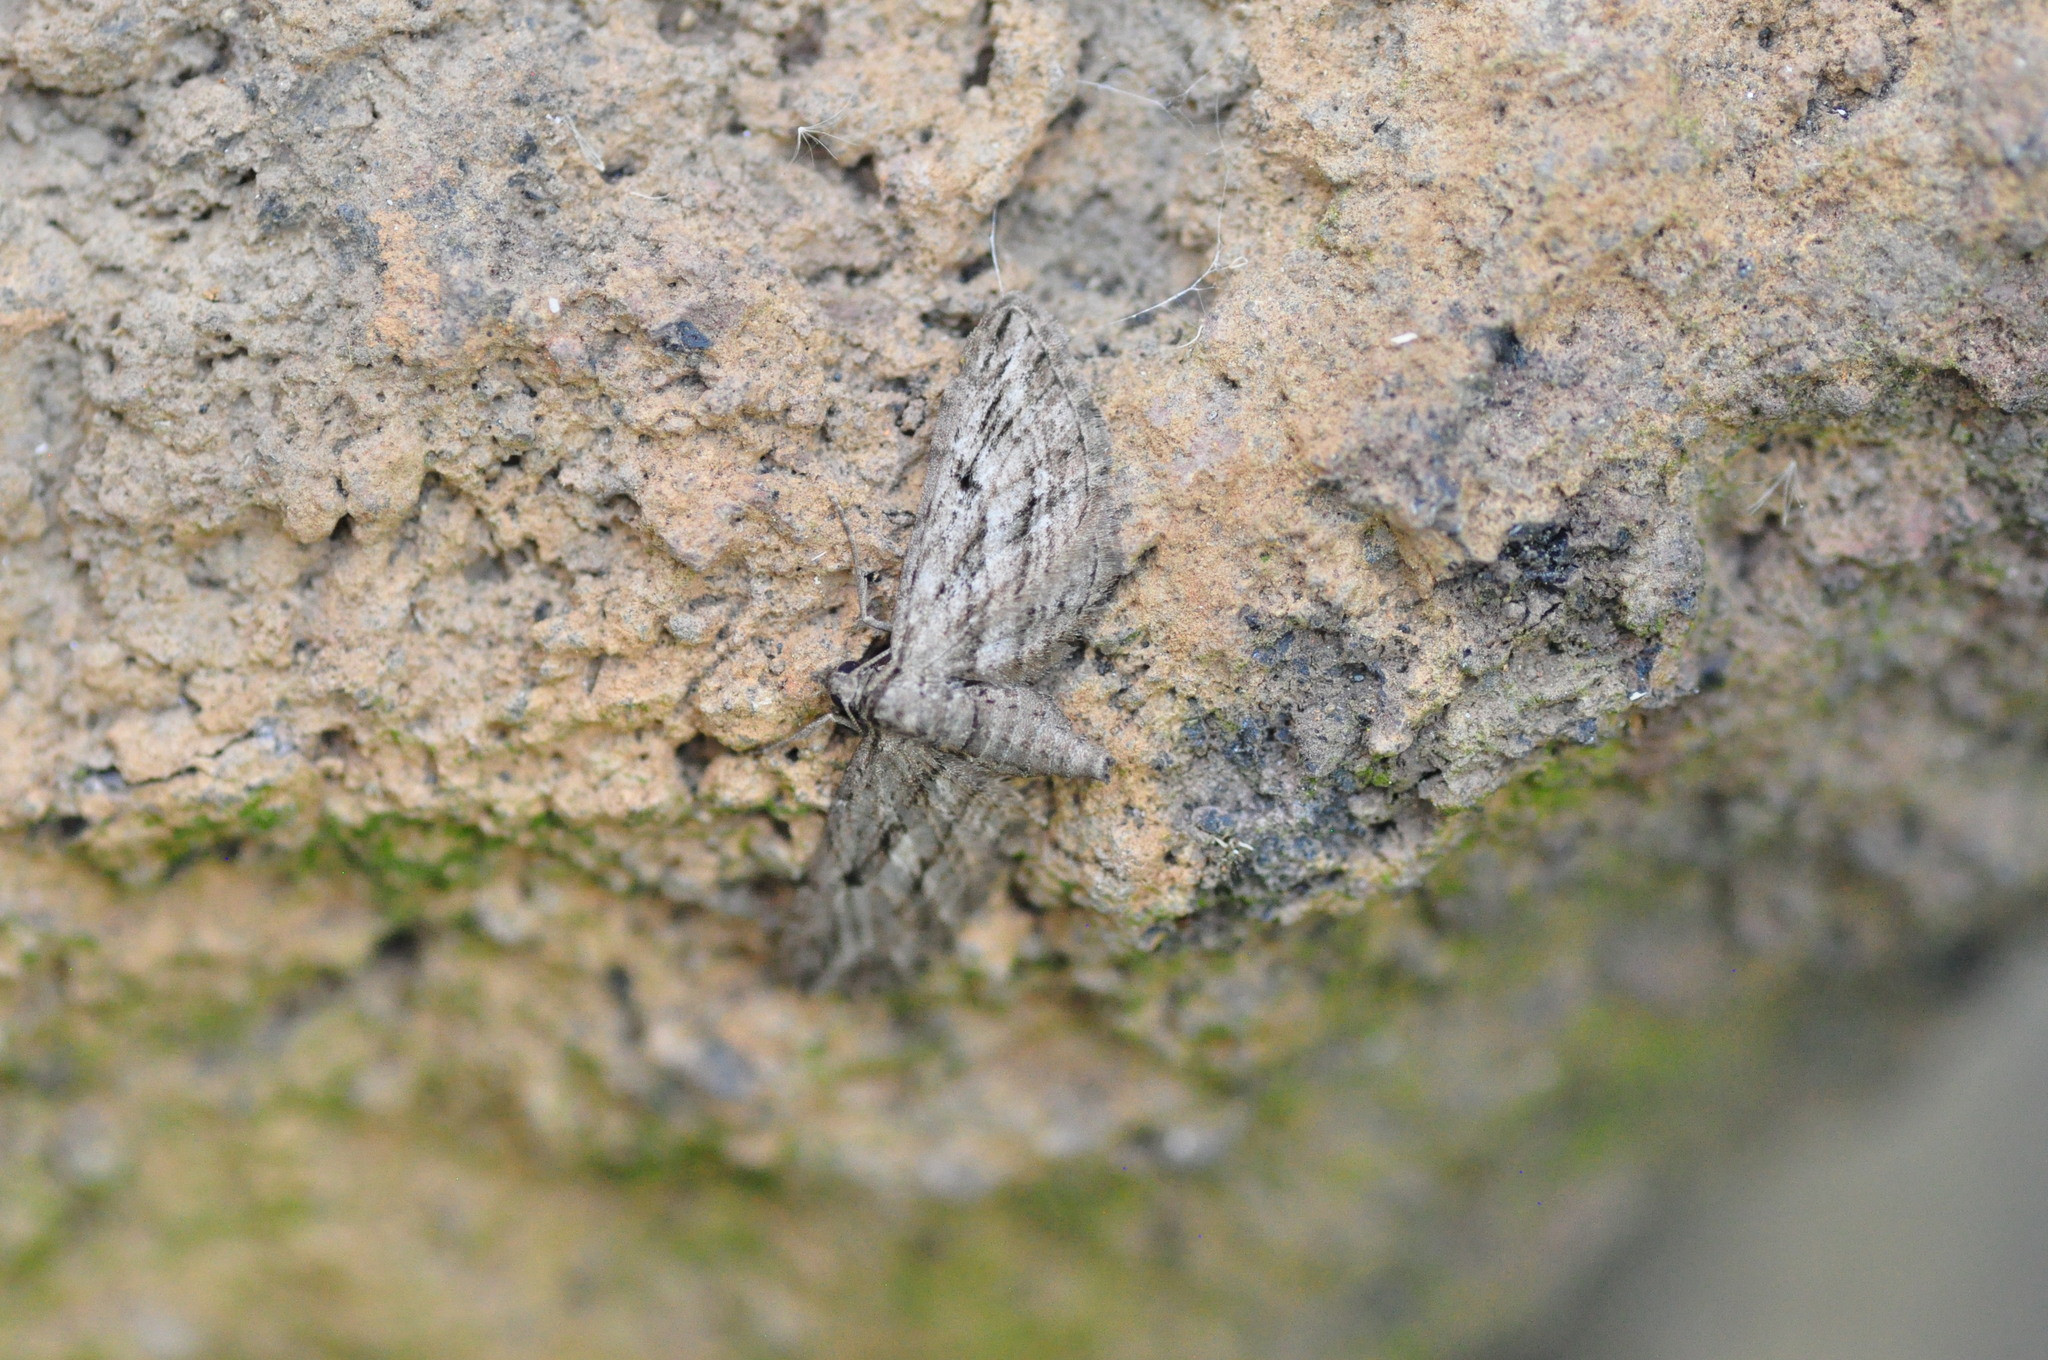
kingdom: Animalia
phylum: Arthropoda
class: Insecta
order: Lepidoptera
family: Geometridae
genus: Eupithecia
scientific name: Eupithecia phoeniceata
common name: Cypress pug
